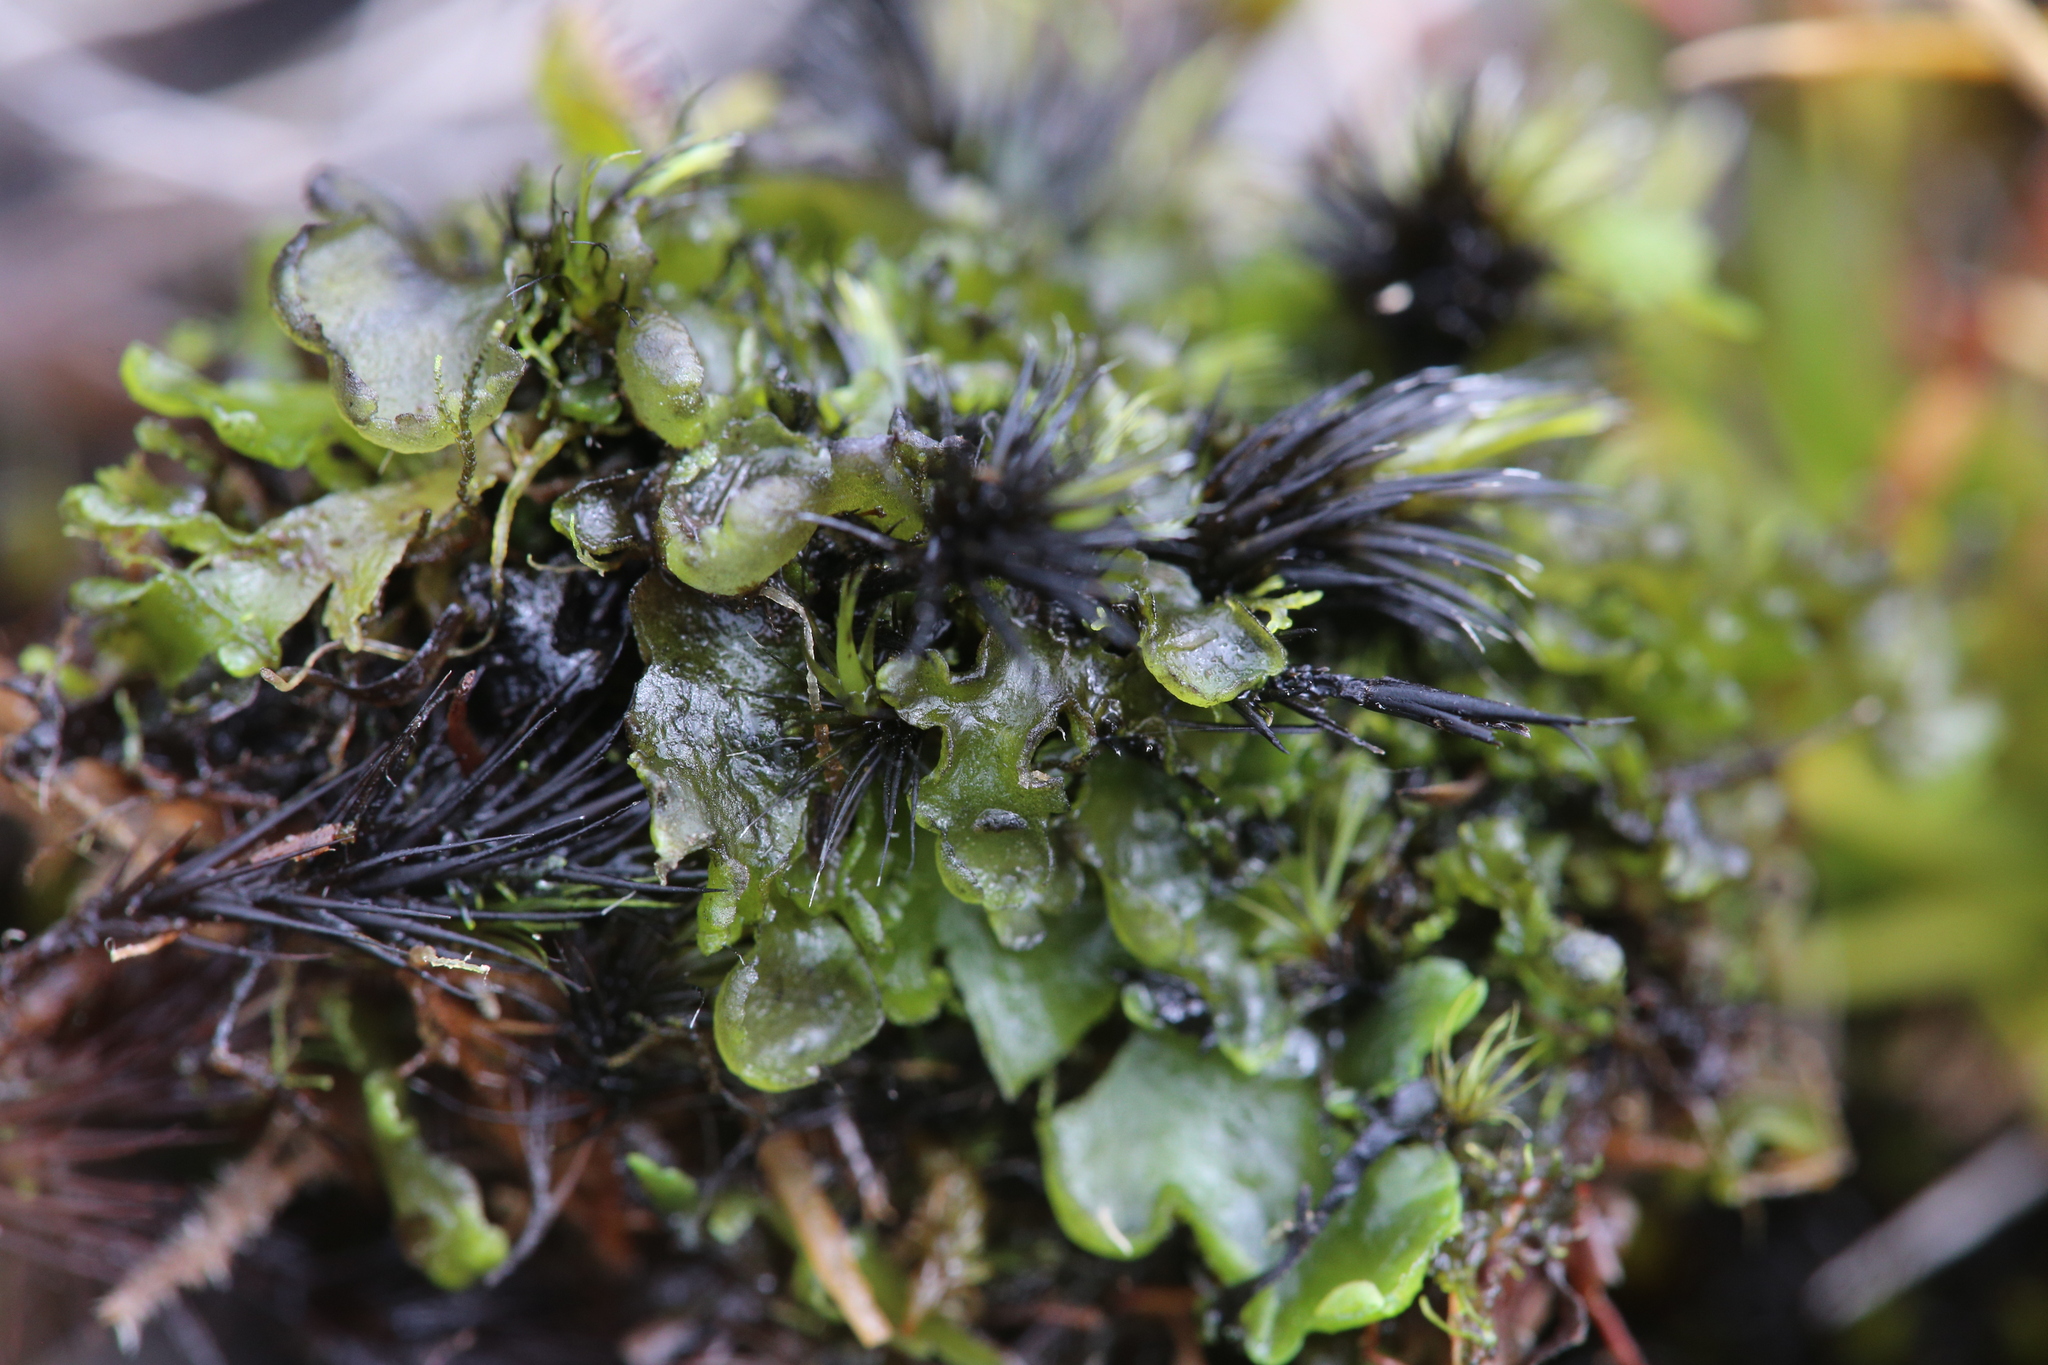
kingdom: Plantae
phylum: Marchantiophyta
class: Jungermanniopsida
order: Metzgeriales
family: Aneuraceae
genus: Riccardia
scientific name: Riccardia cochleata
